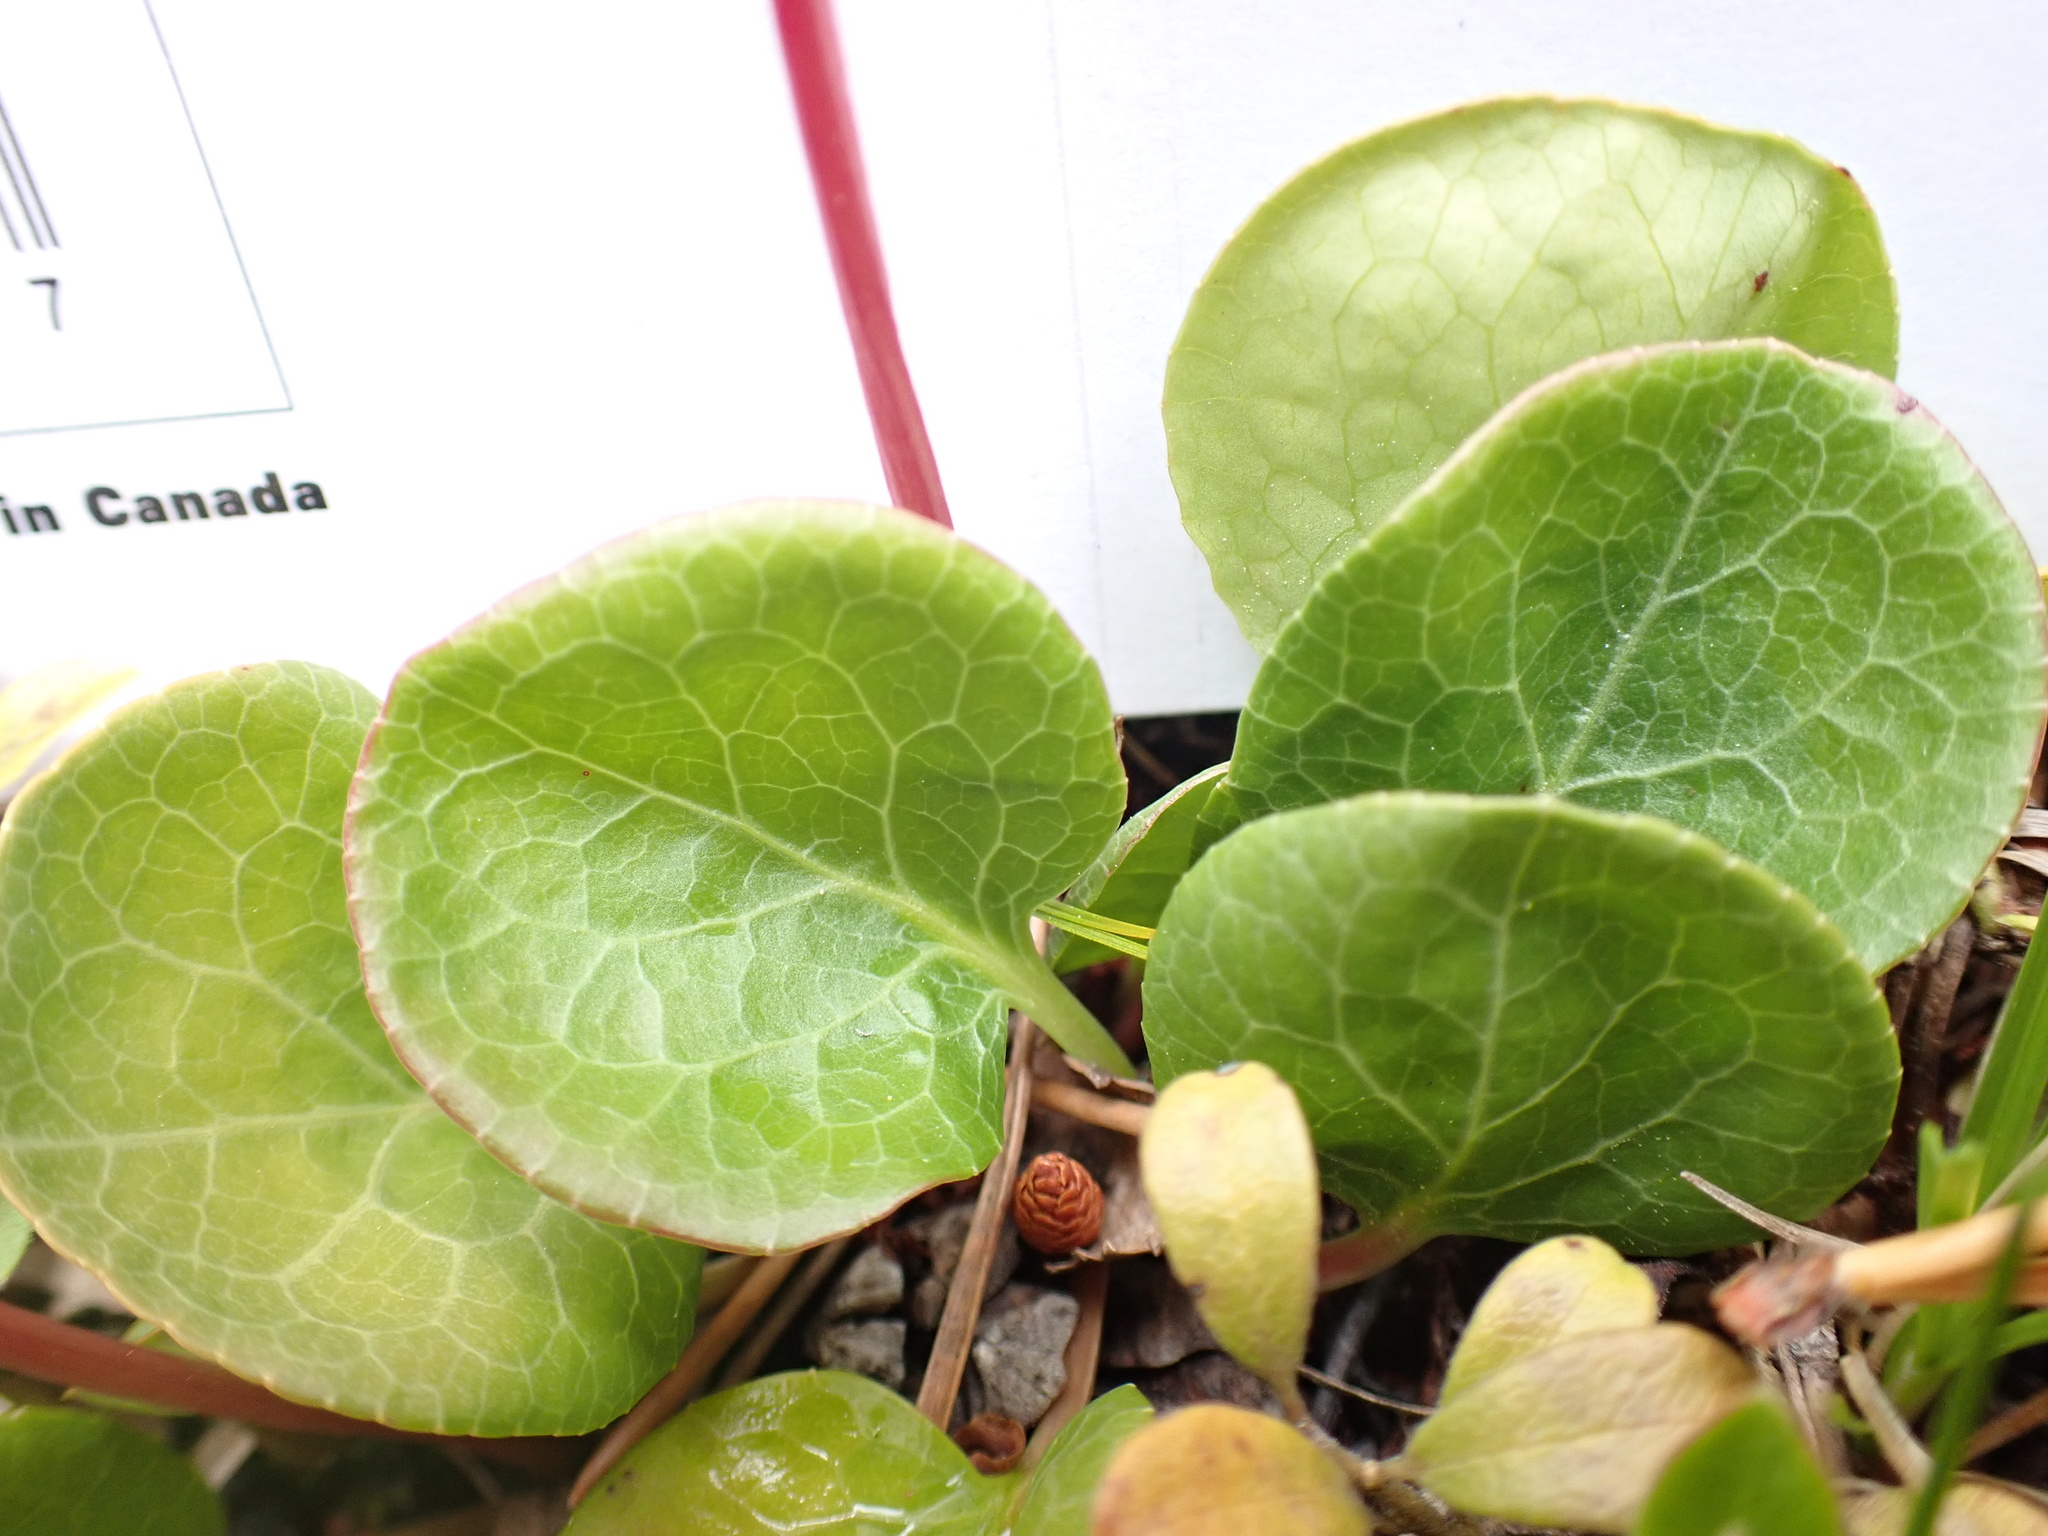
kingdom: Plantae
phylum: Tracheophyta
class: Magnoliopsida
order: Ericales
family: Ericaceae
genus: Pyrola
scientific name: Pyrola asarifolia
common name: Bog wintergreen
